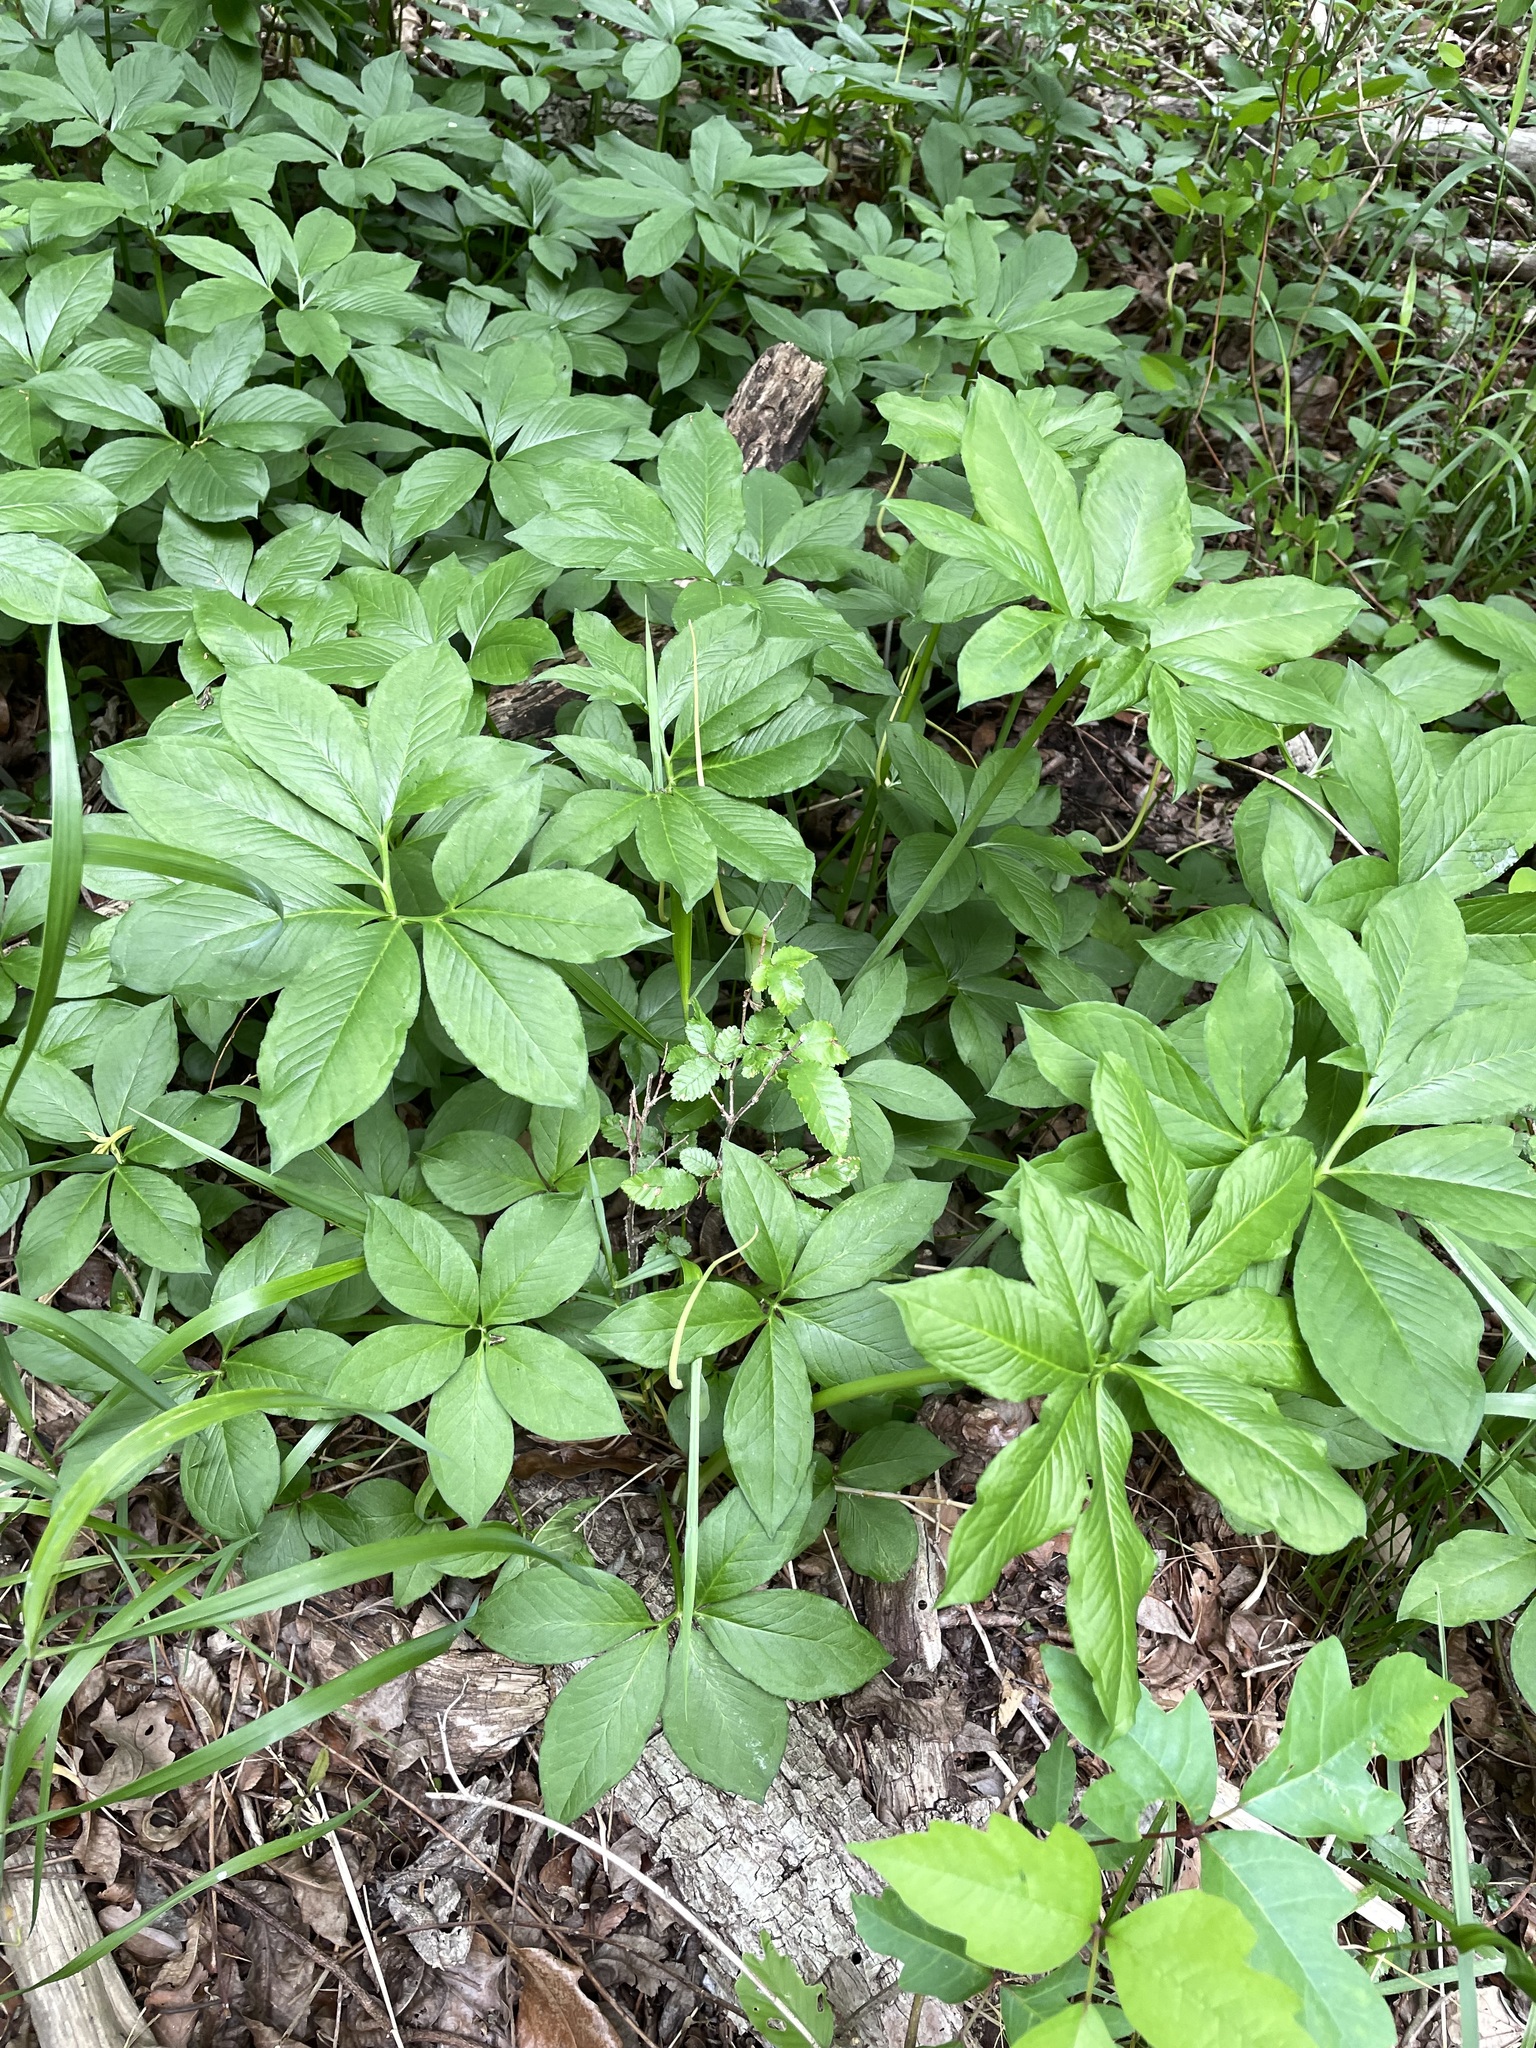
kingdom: Plantae
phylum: Tracheophyta
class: Liliopsida
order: Alismatales
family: Araceae
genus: Arisaema
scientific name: Arisaema dracontium
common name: Dragon-arum
